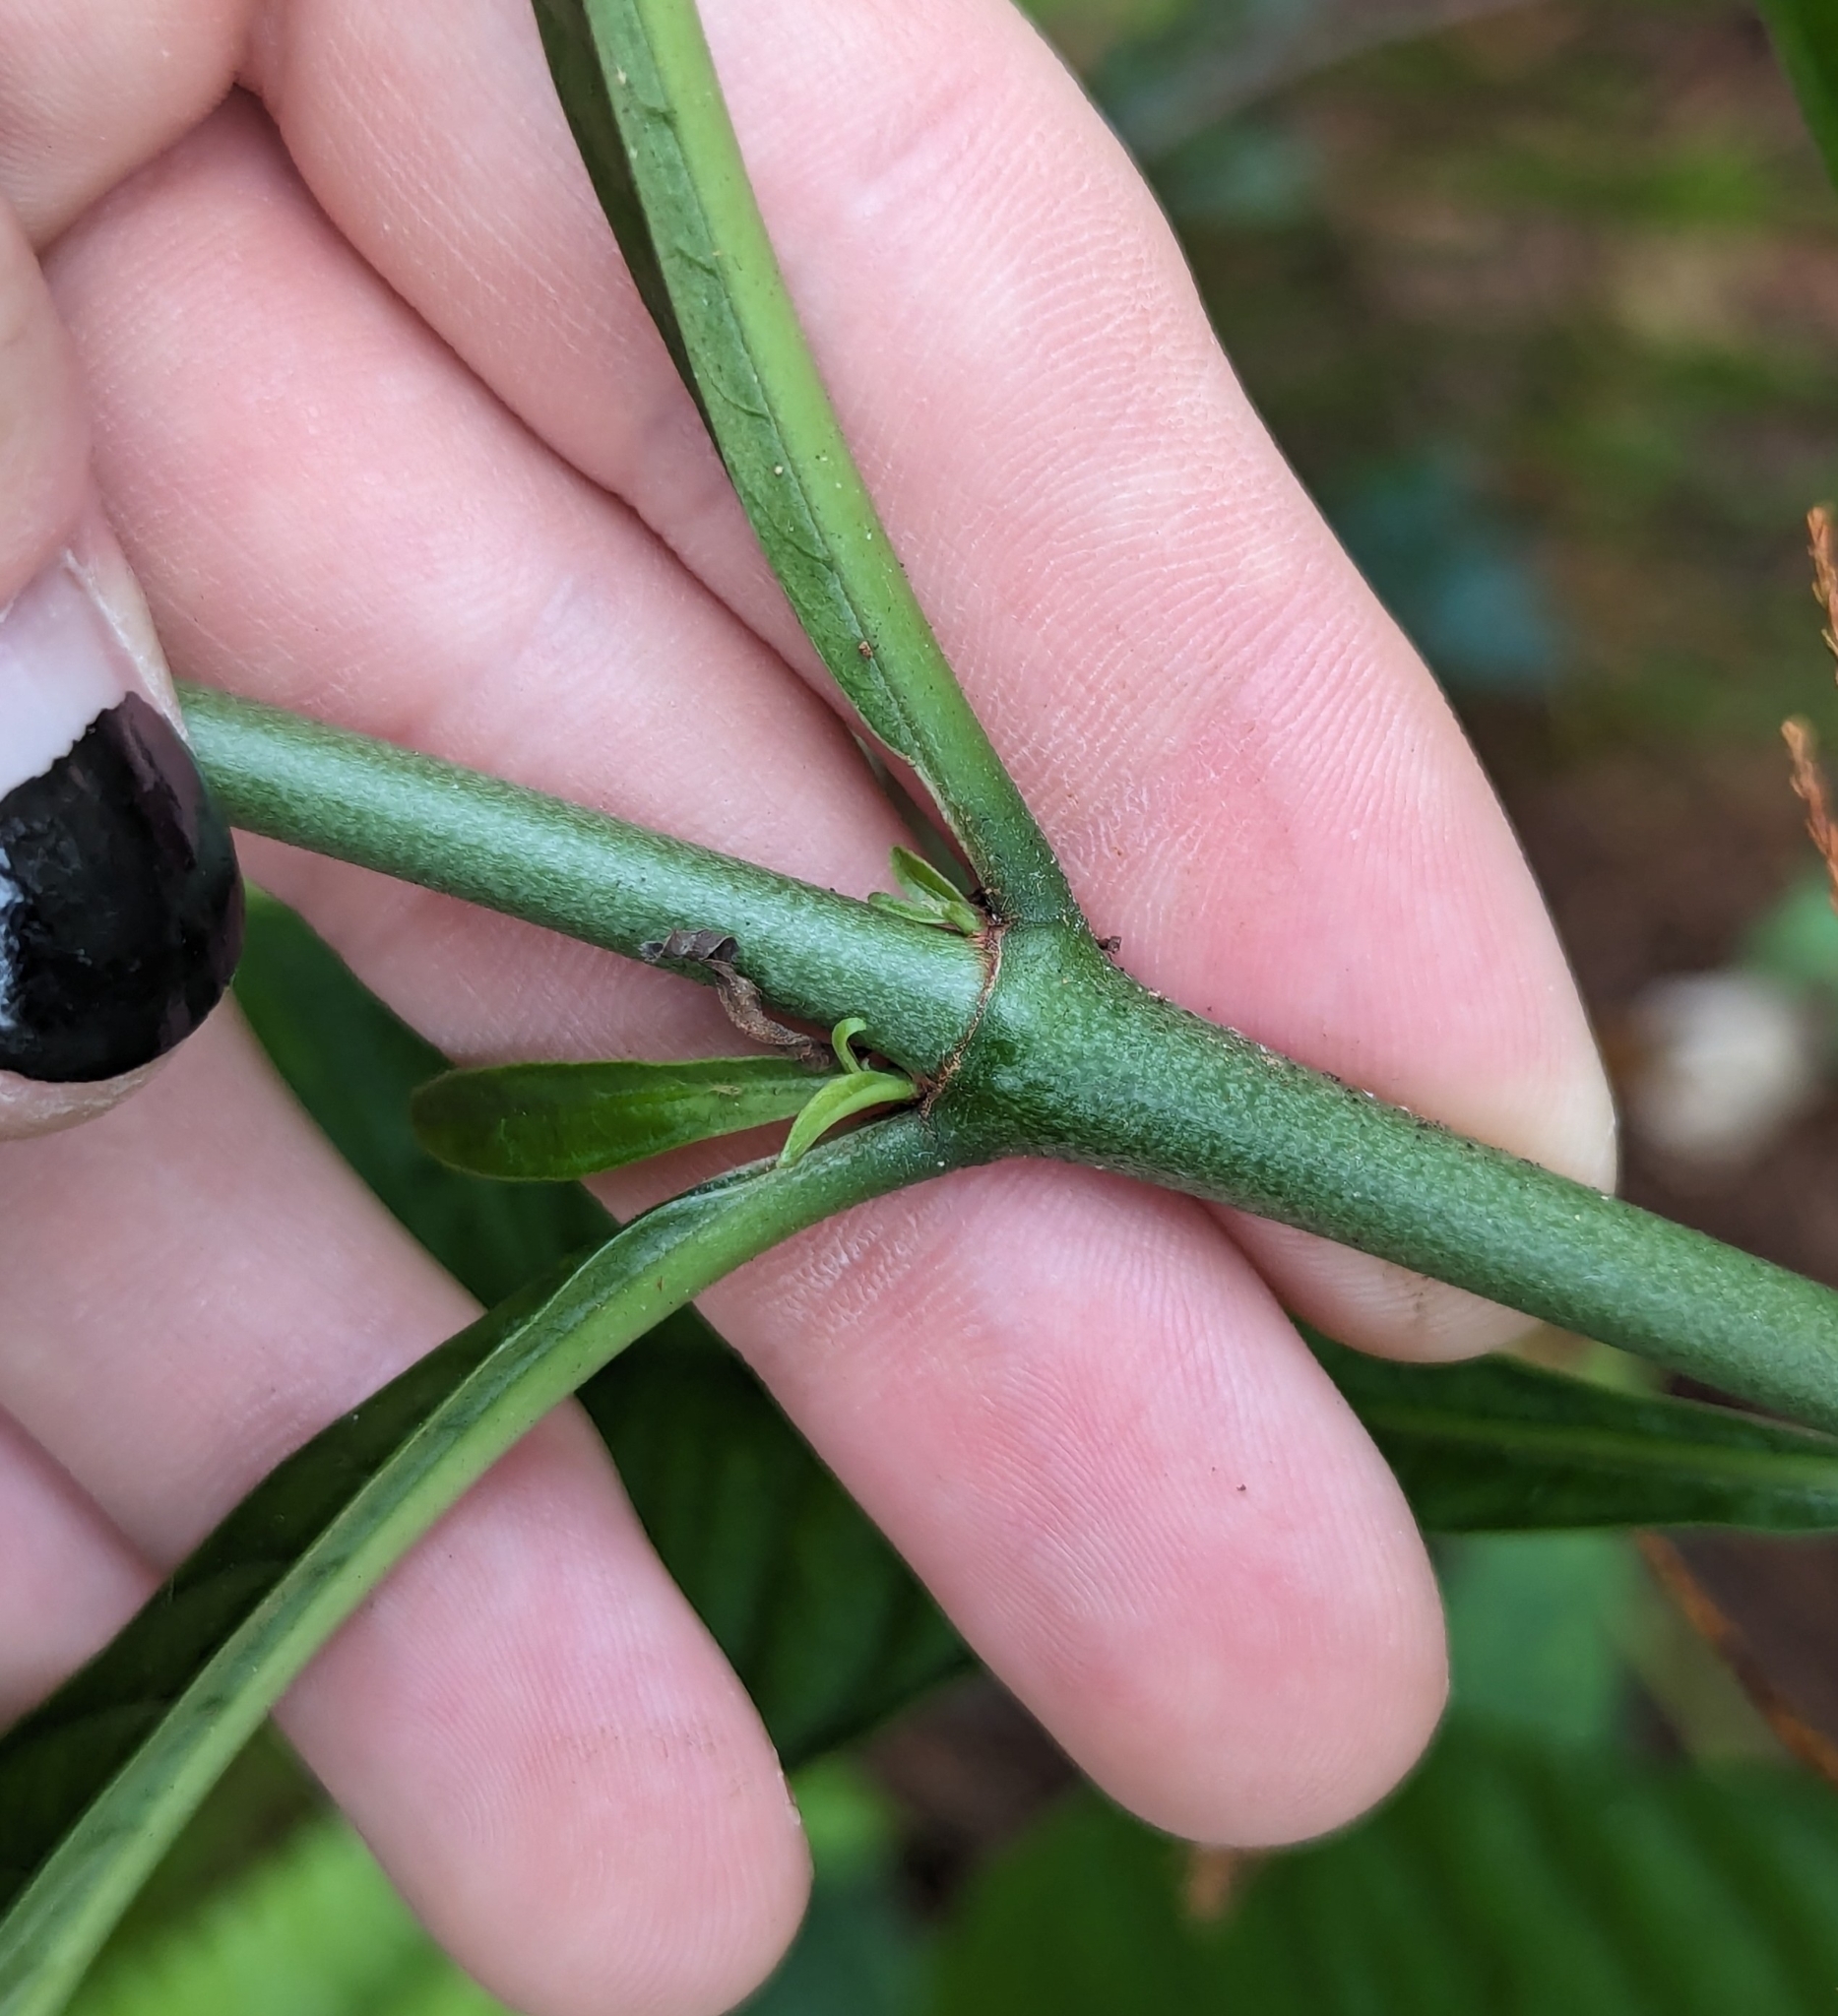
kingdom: Plantae
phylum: Tracheophyta
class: Magnoliopsida
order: Gentianales
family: Rubiaceae
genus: Psychotria
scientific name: Psychotria tenuifolia
